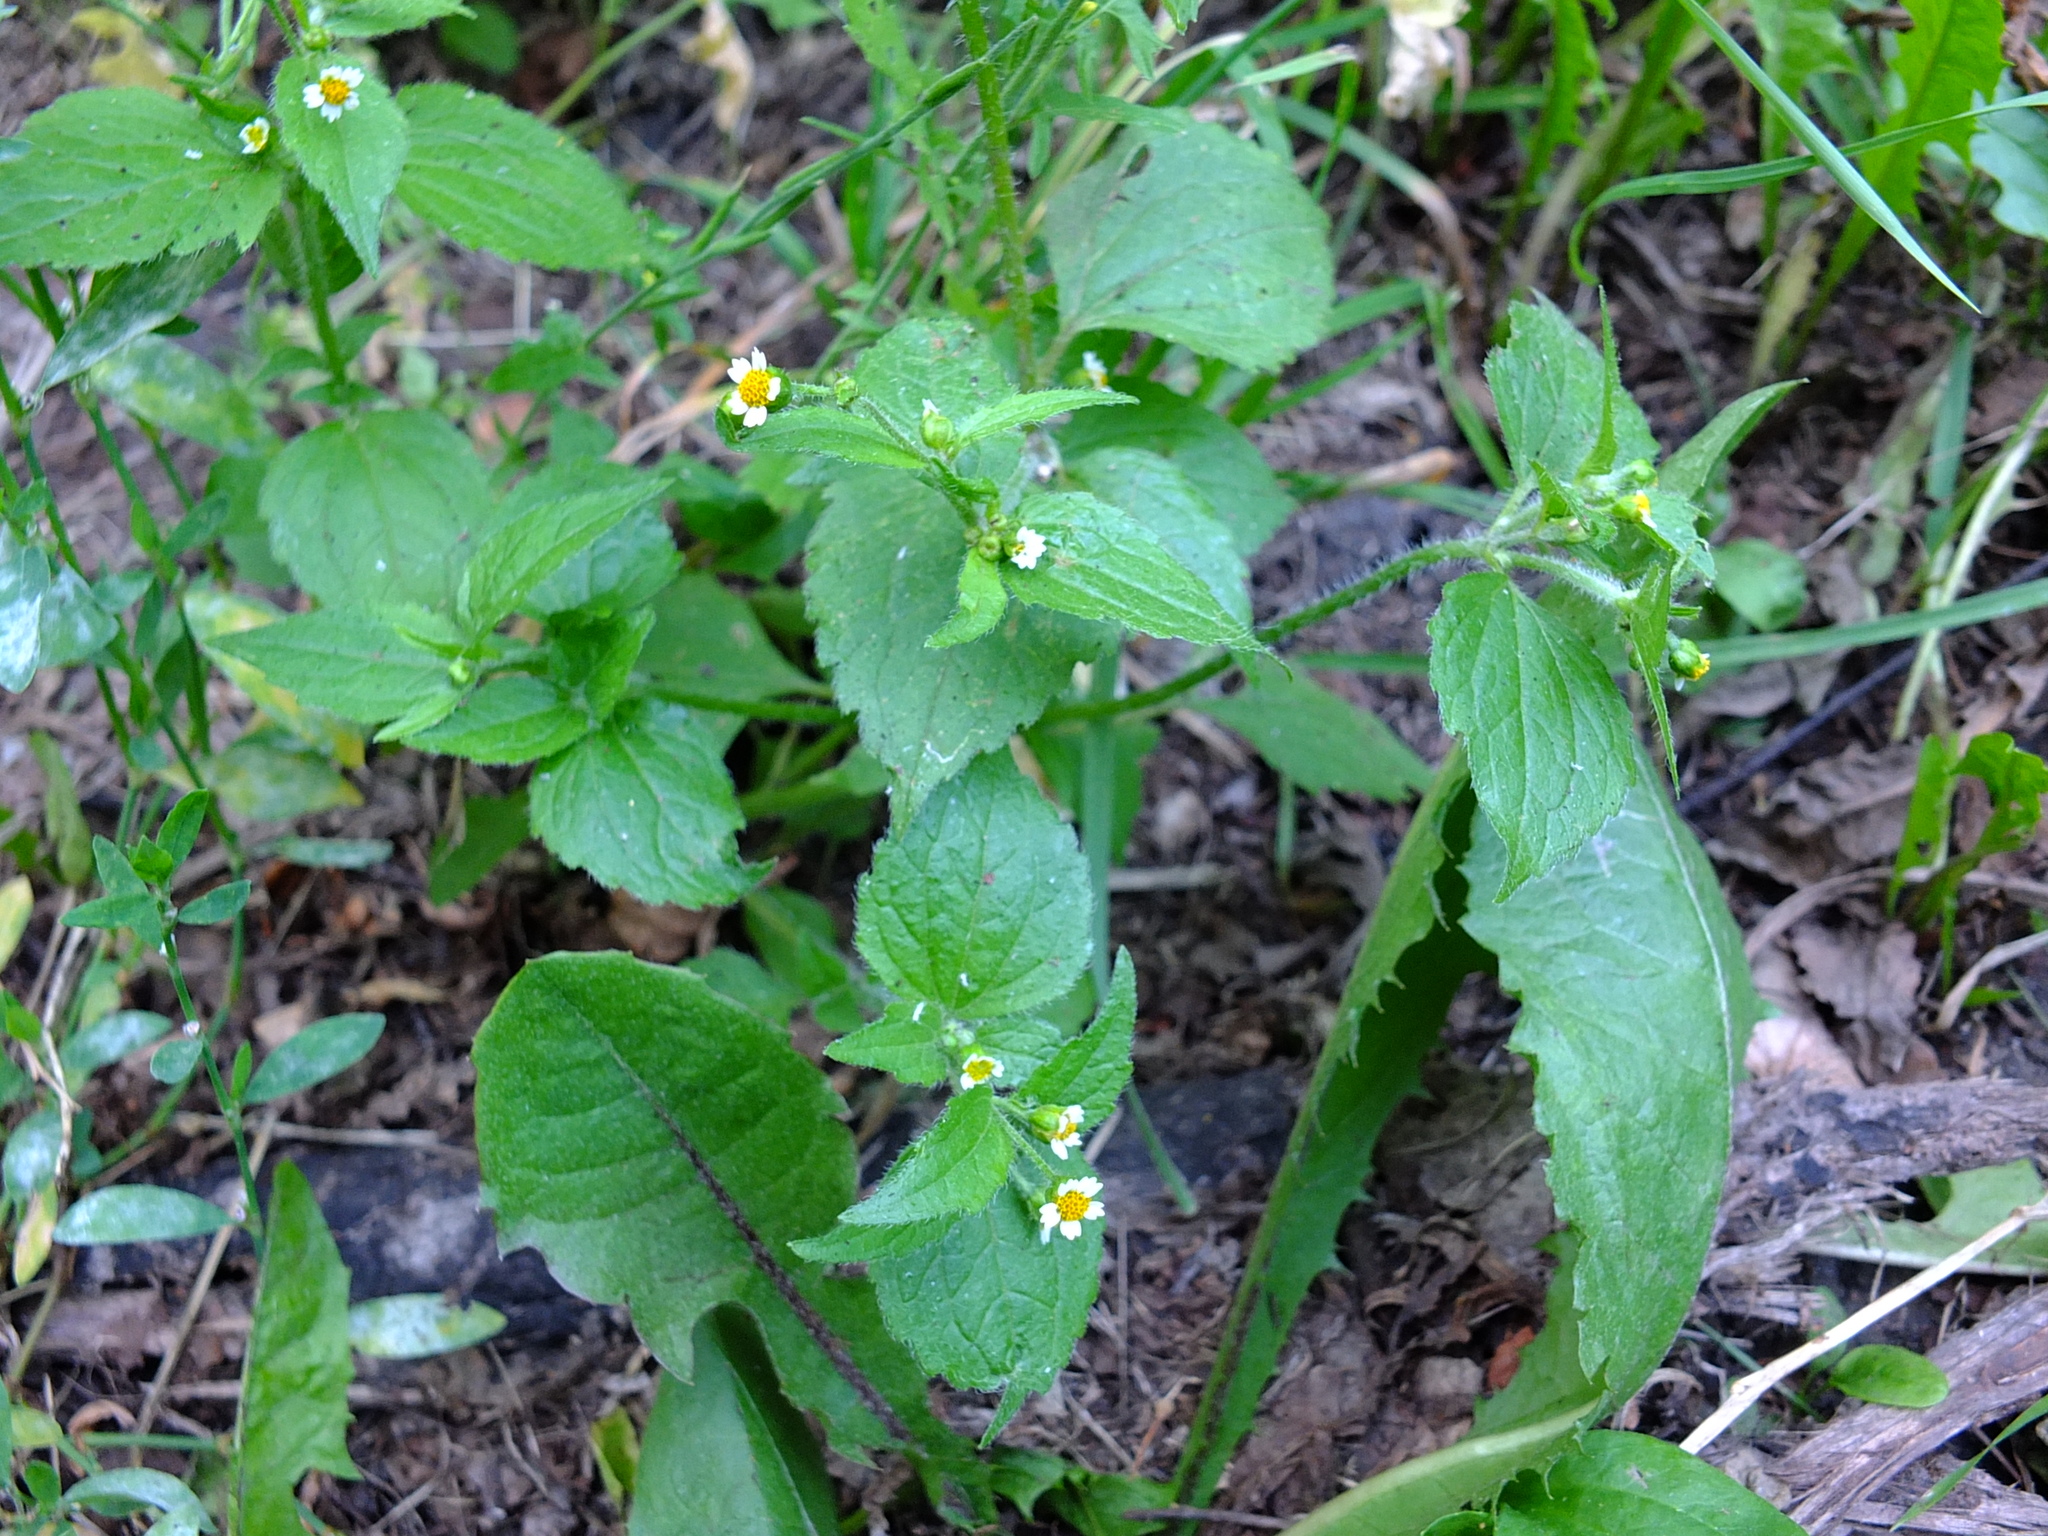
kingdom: Plantae
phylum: Tracheophyta
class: Magnoliopsida
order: Asterales
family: Asteraceae
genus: Galinsoga
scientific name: Galinsoga quadriradiata
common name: Shaggy soldier
